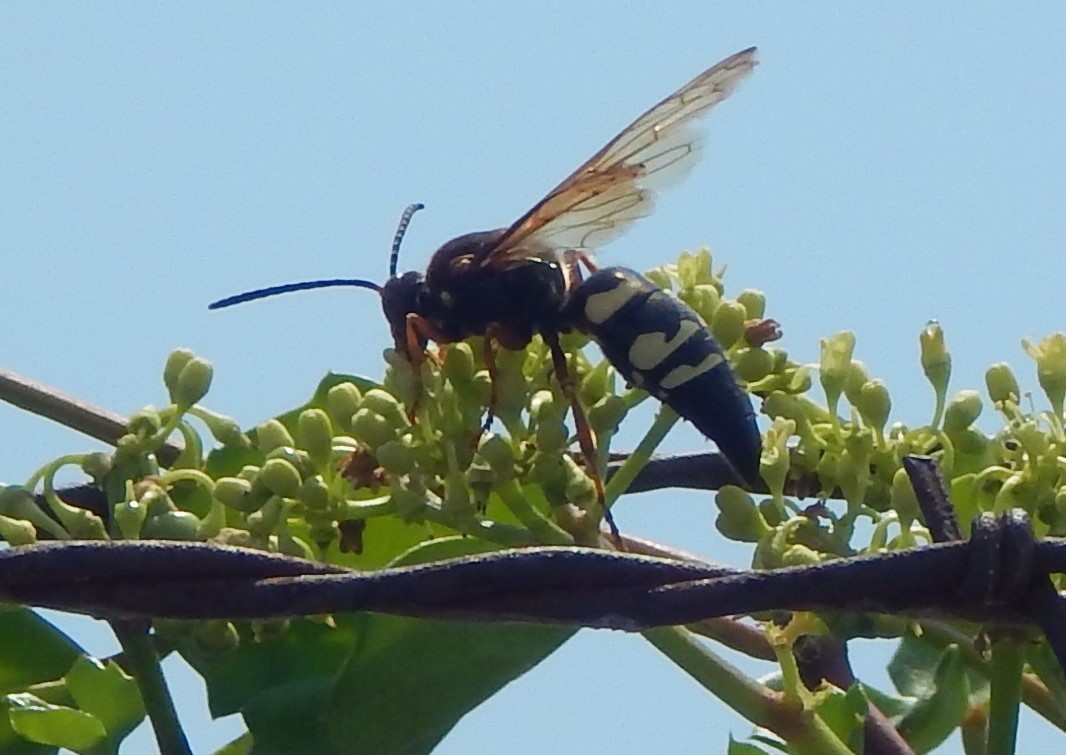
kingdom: Animalia
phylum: Arthropoda
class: Insecta
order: Hymenoptera
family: Crabronidae
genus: Sphecius
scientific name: Sphecius speciosus
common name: Cicada killer
